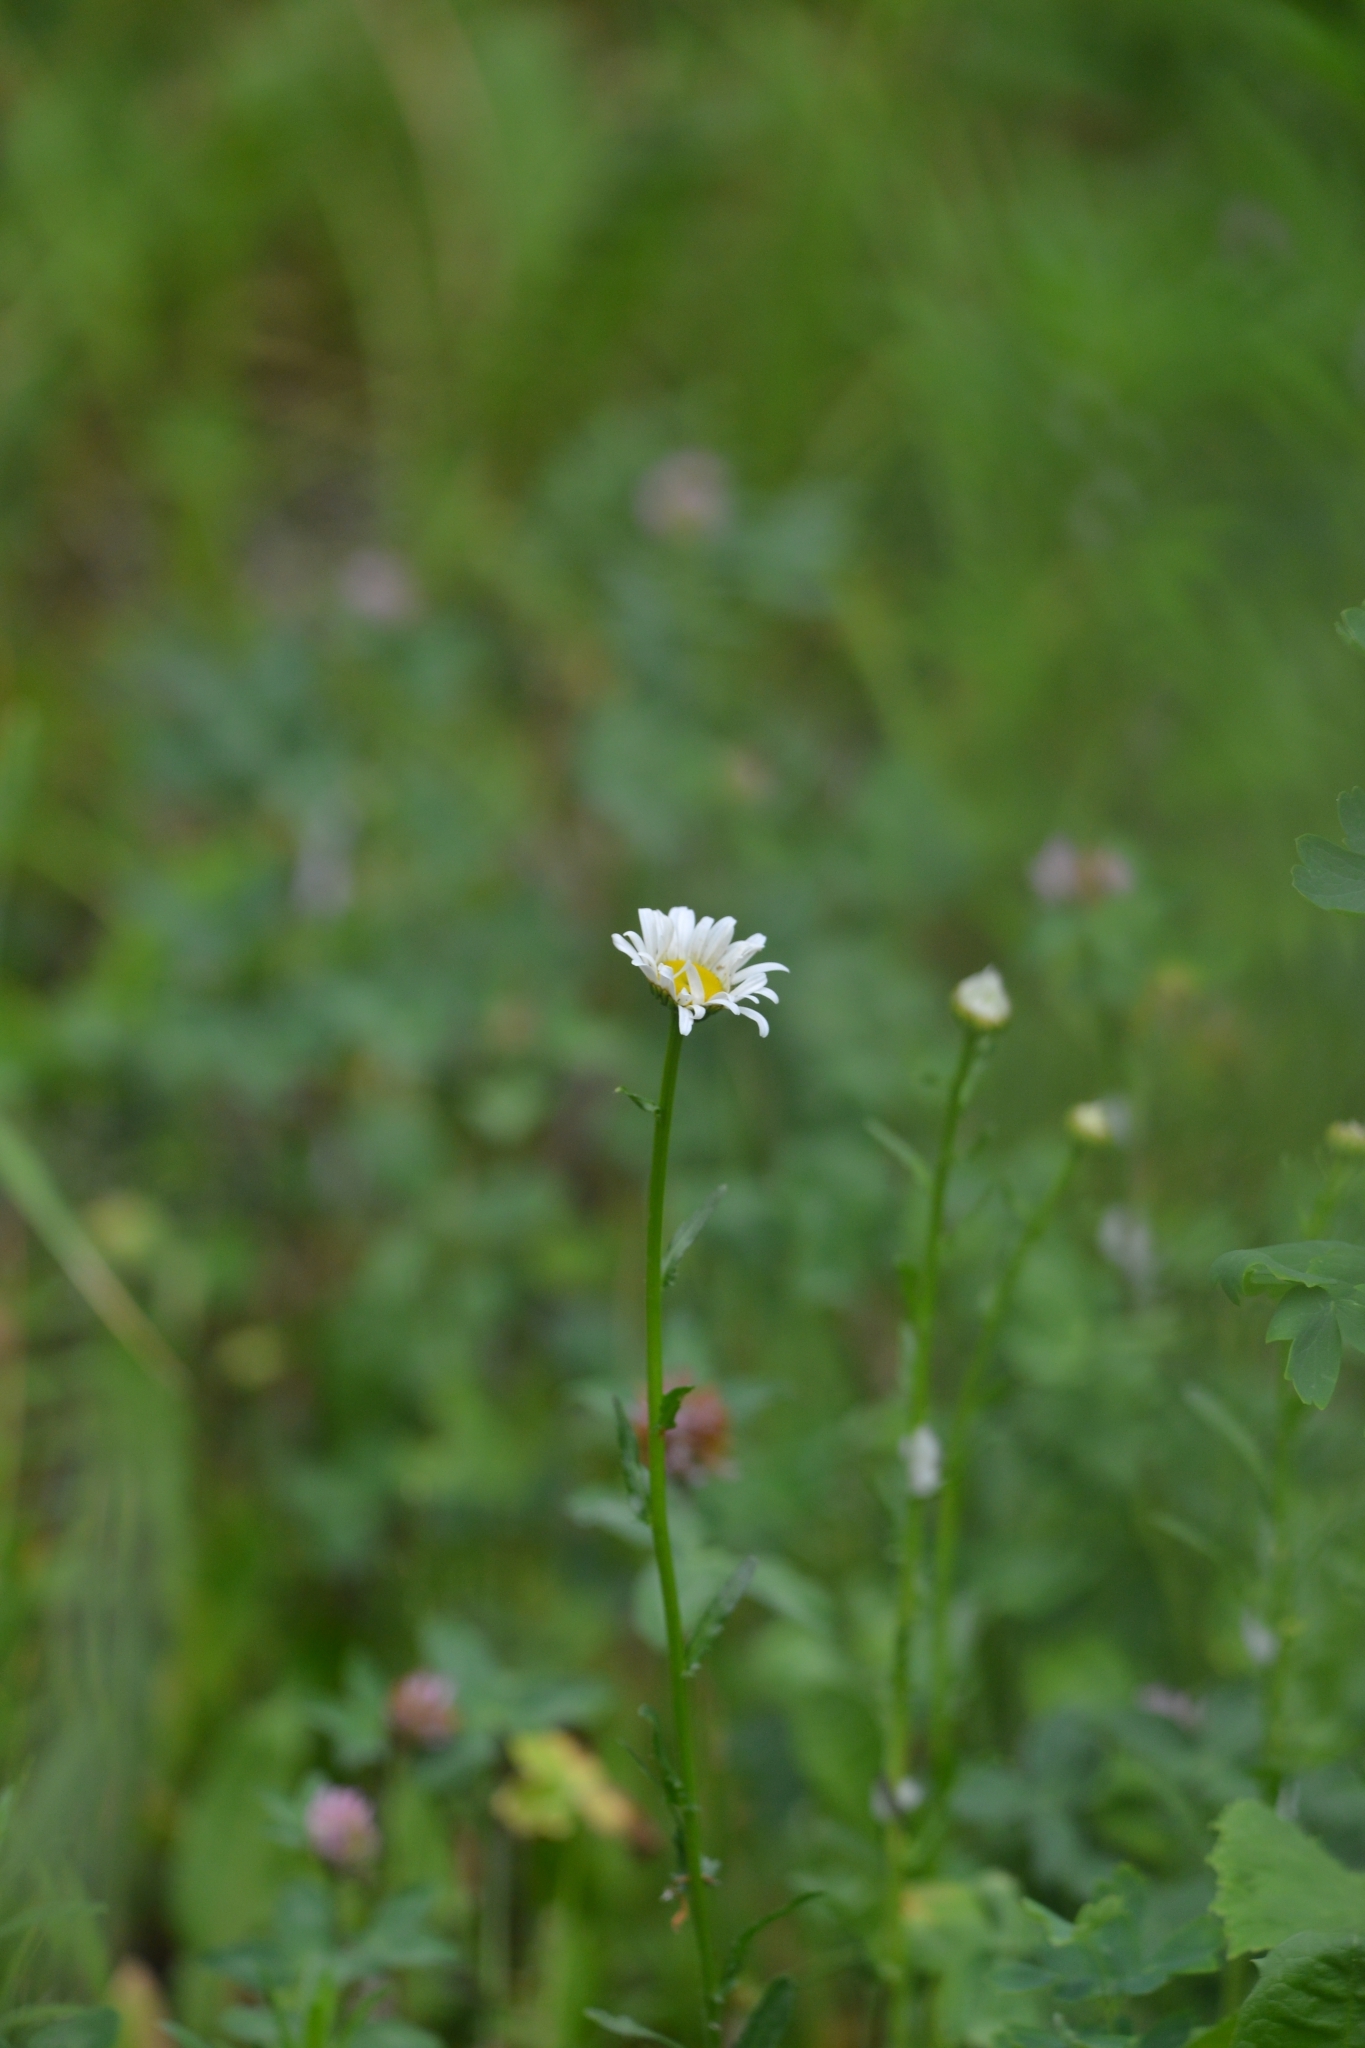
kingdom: Plantae
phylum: Tracheophyta
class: Magnoliopsida
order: Asterales
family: Asteraceae
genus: Leucanthemum
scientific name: Leucanthemum vulgare
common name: Oxeye daisy
